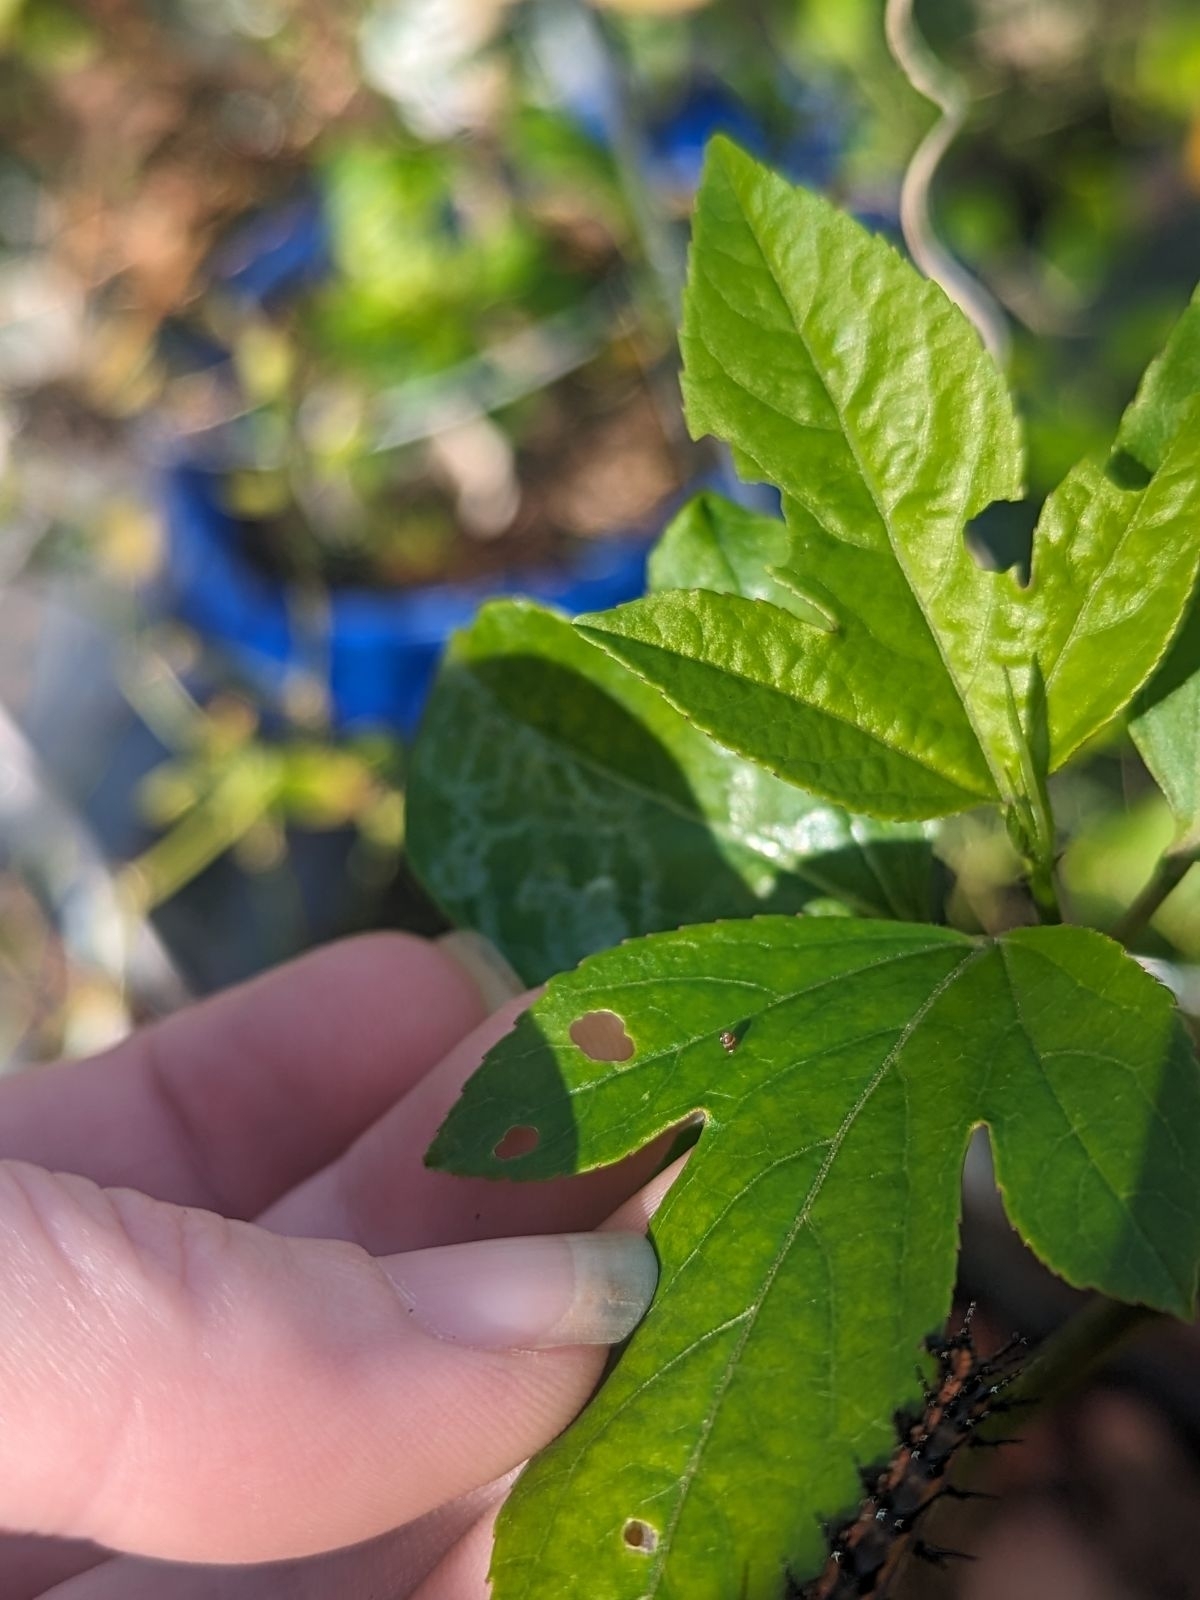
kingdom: Animalia
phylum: Arthropoda
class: Insecta
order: Lepidoptera
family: Nymphalidae
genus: Dione
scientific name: Dione vanillae
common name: Gulf fritillary
